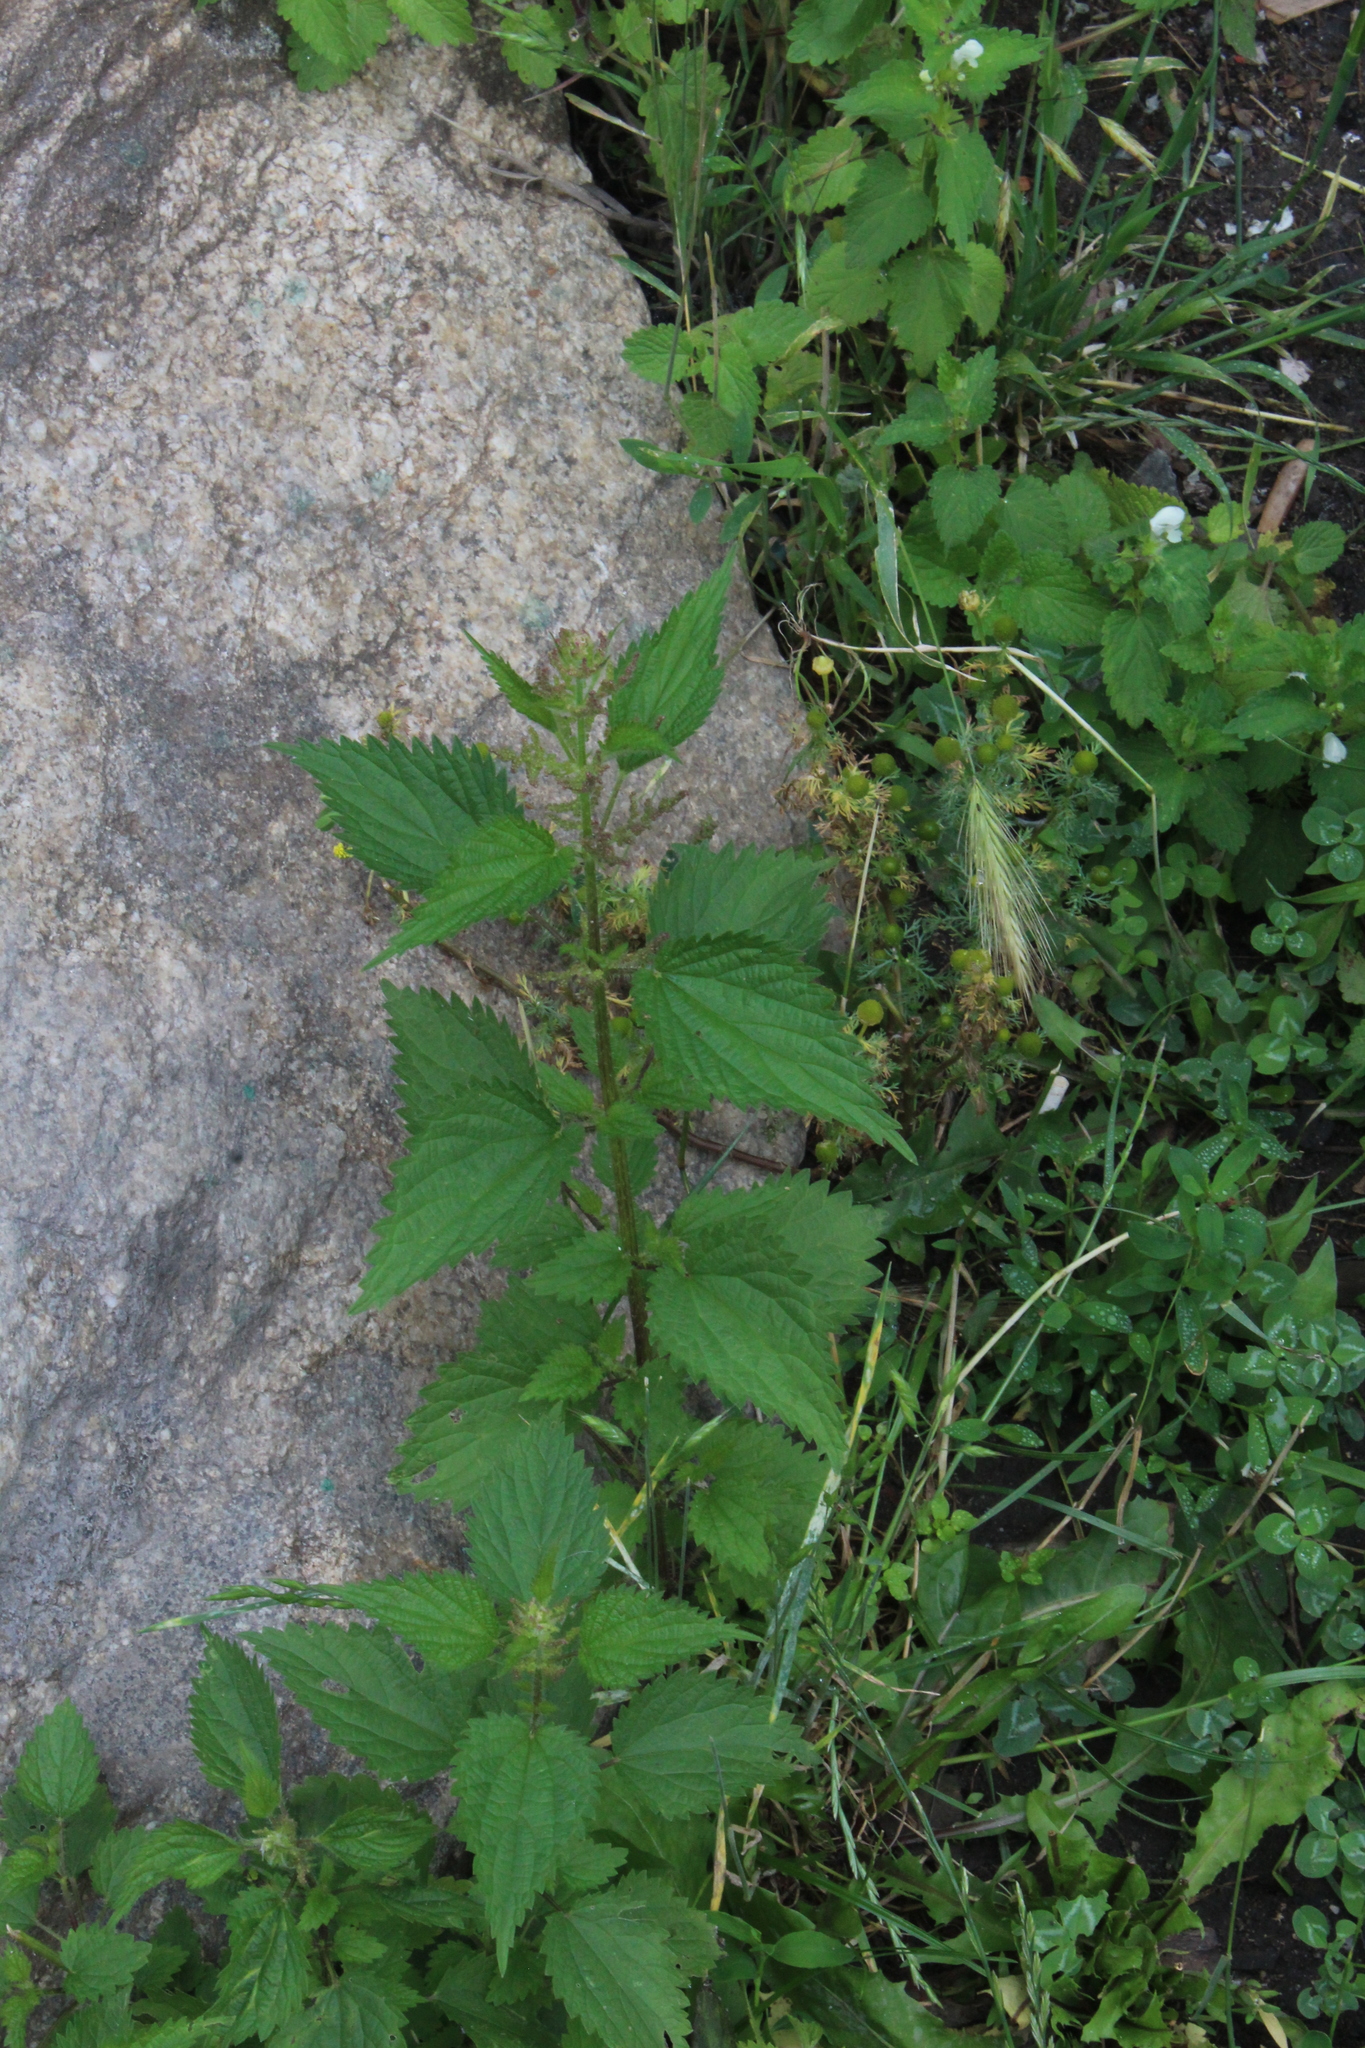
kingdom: Plantae
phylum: Tracheophyta
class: Magnoliopsida
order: Rosales
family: Urticaceae
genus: Urtica
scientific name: Urtica dioica
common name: Common nettle
